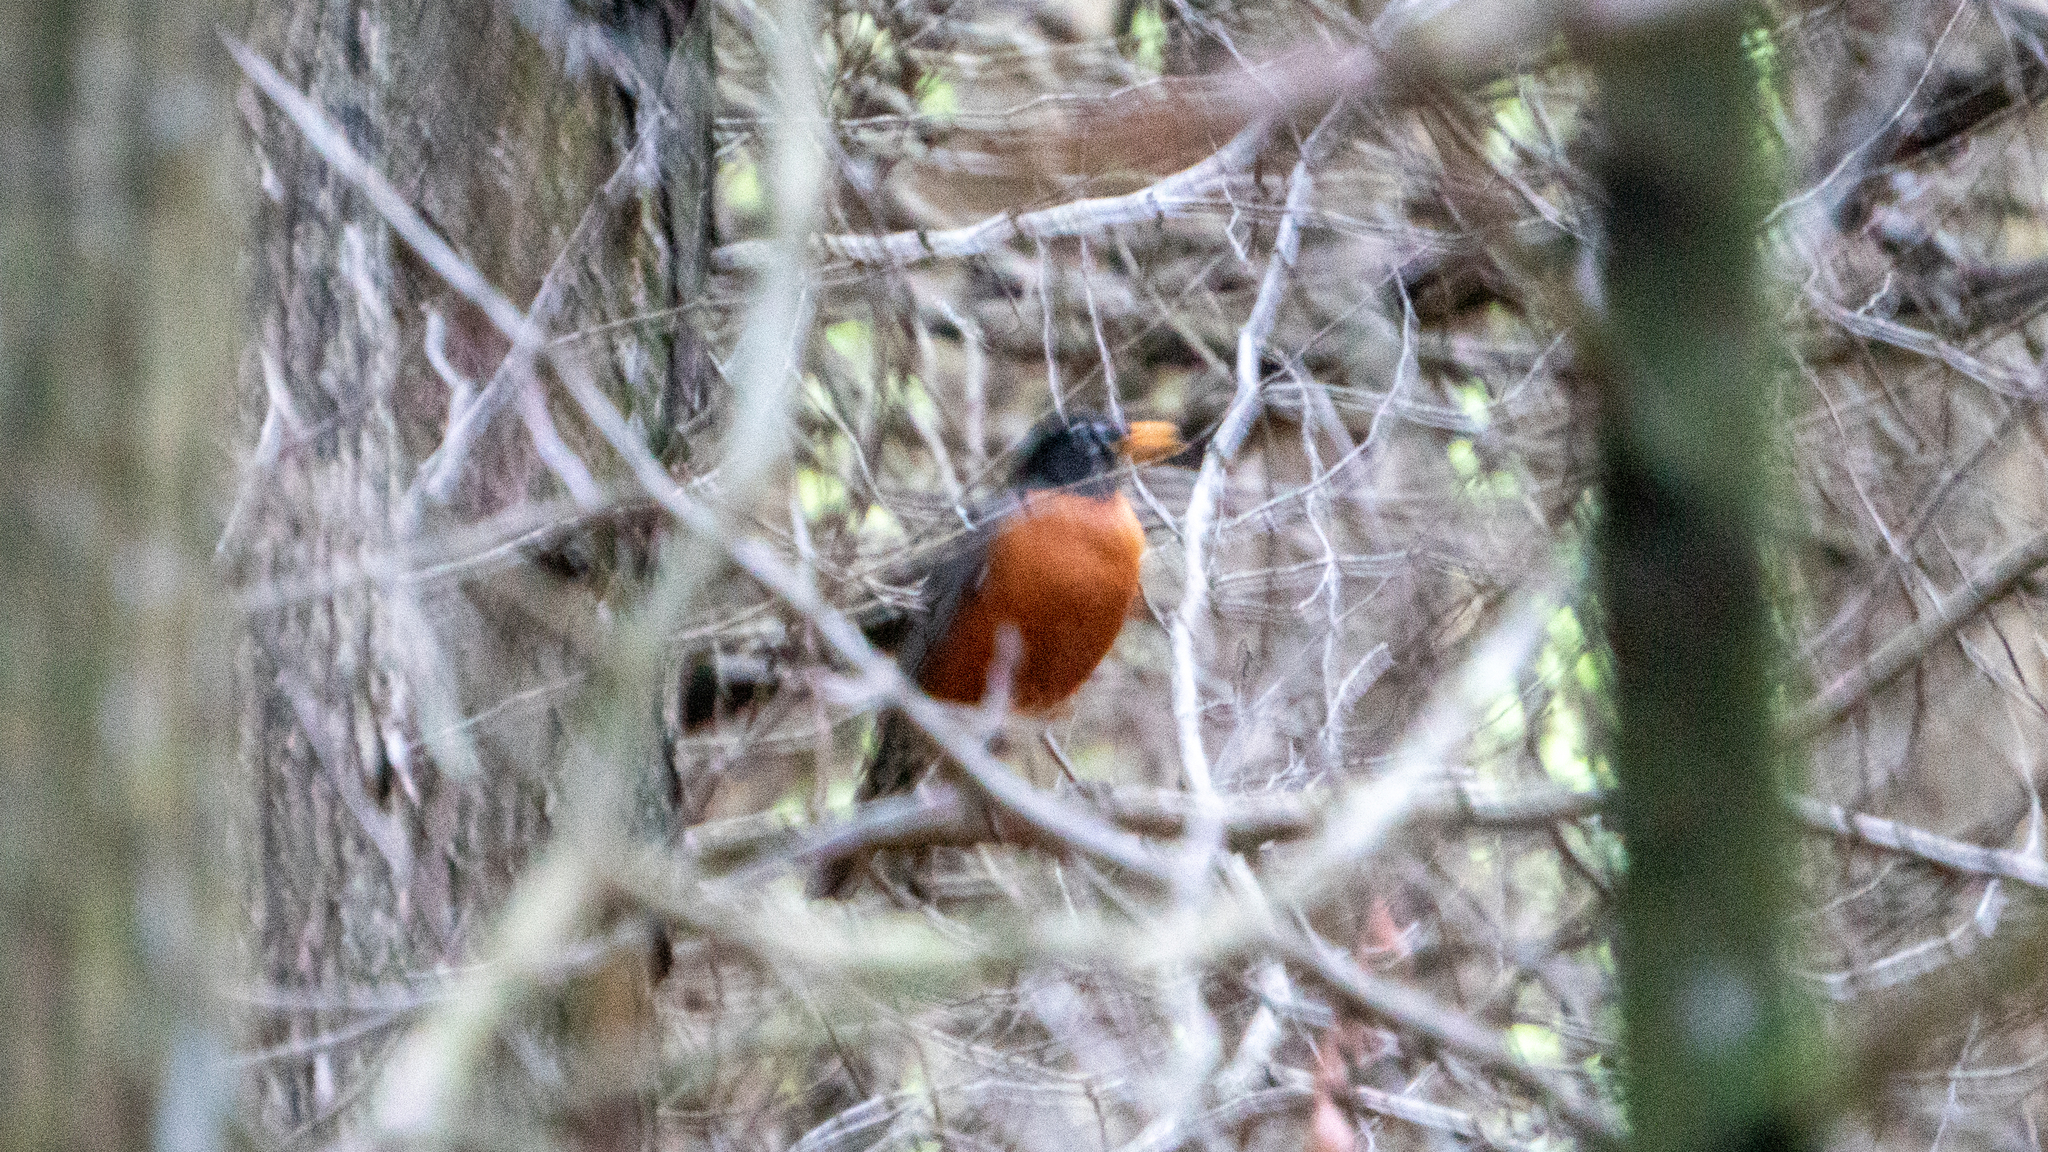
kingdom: Animalia
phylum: Chordata
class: Aves
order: Passeriformes
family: Turdidae
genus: Turdus
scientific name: Turdus migratorius
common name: American robin
